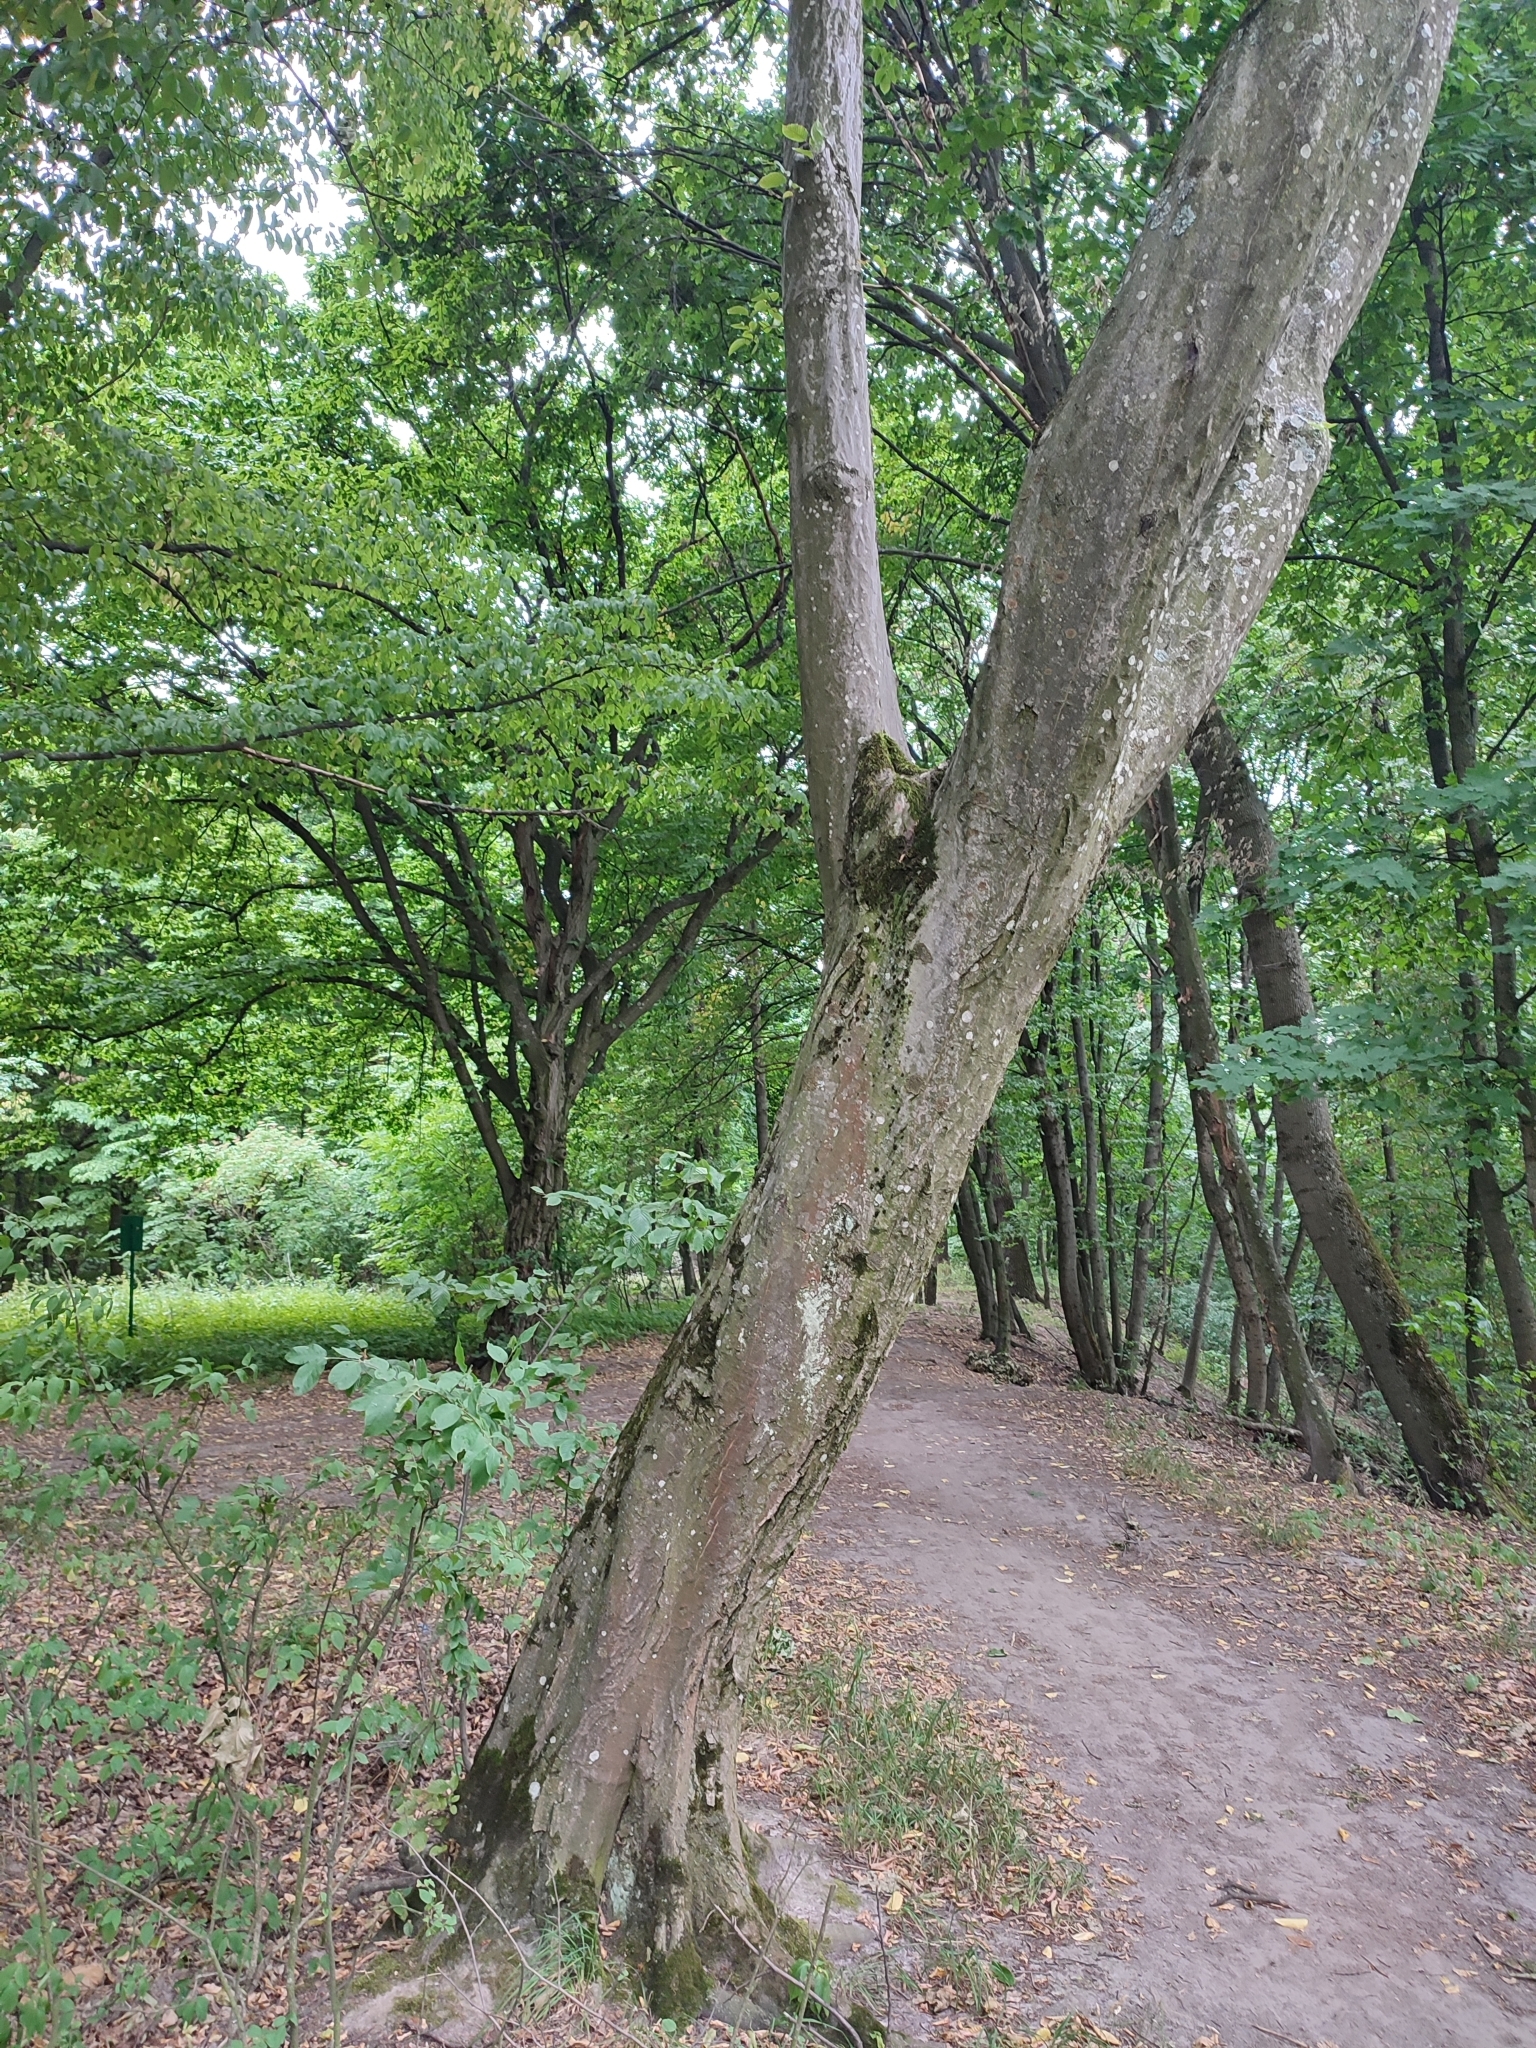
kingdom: Plantae
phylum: Tracheophyta
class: Magnoliopsida
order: Fagales
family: Betulaceae
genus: Carpinus
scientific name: Carpinus betulus
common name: Hornbeam
